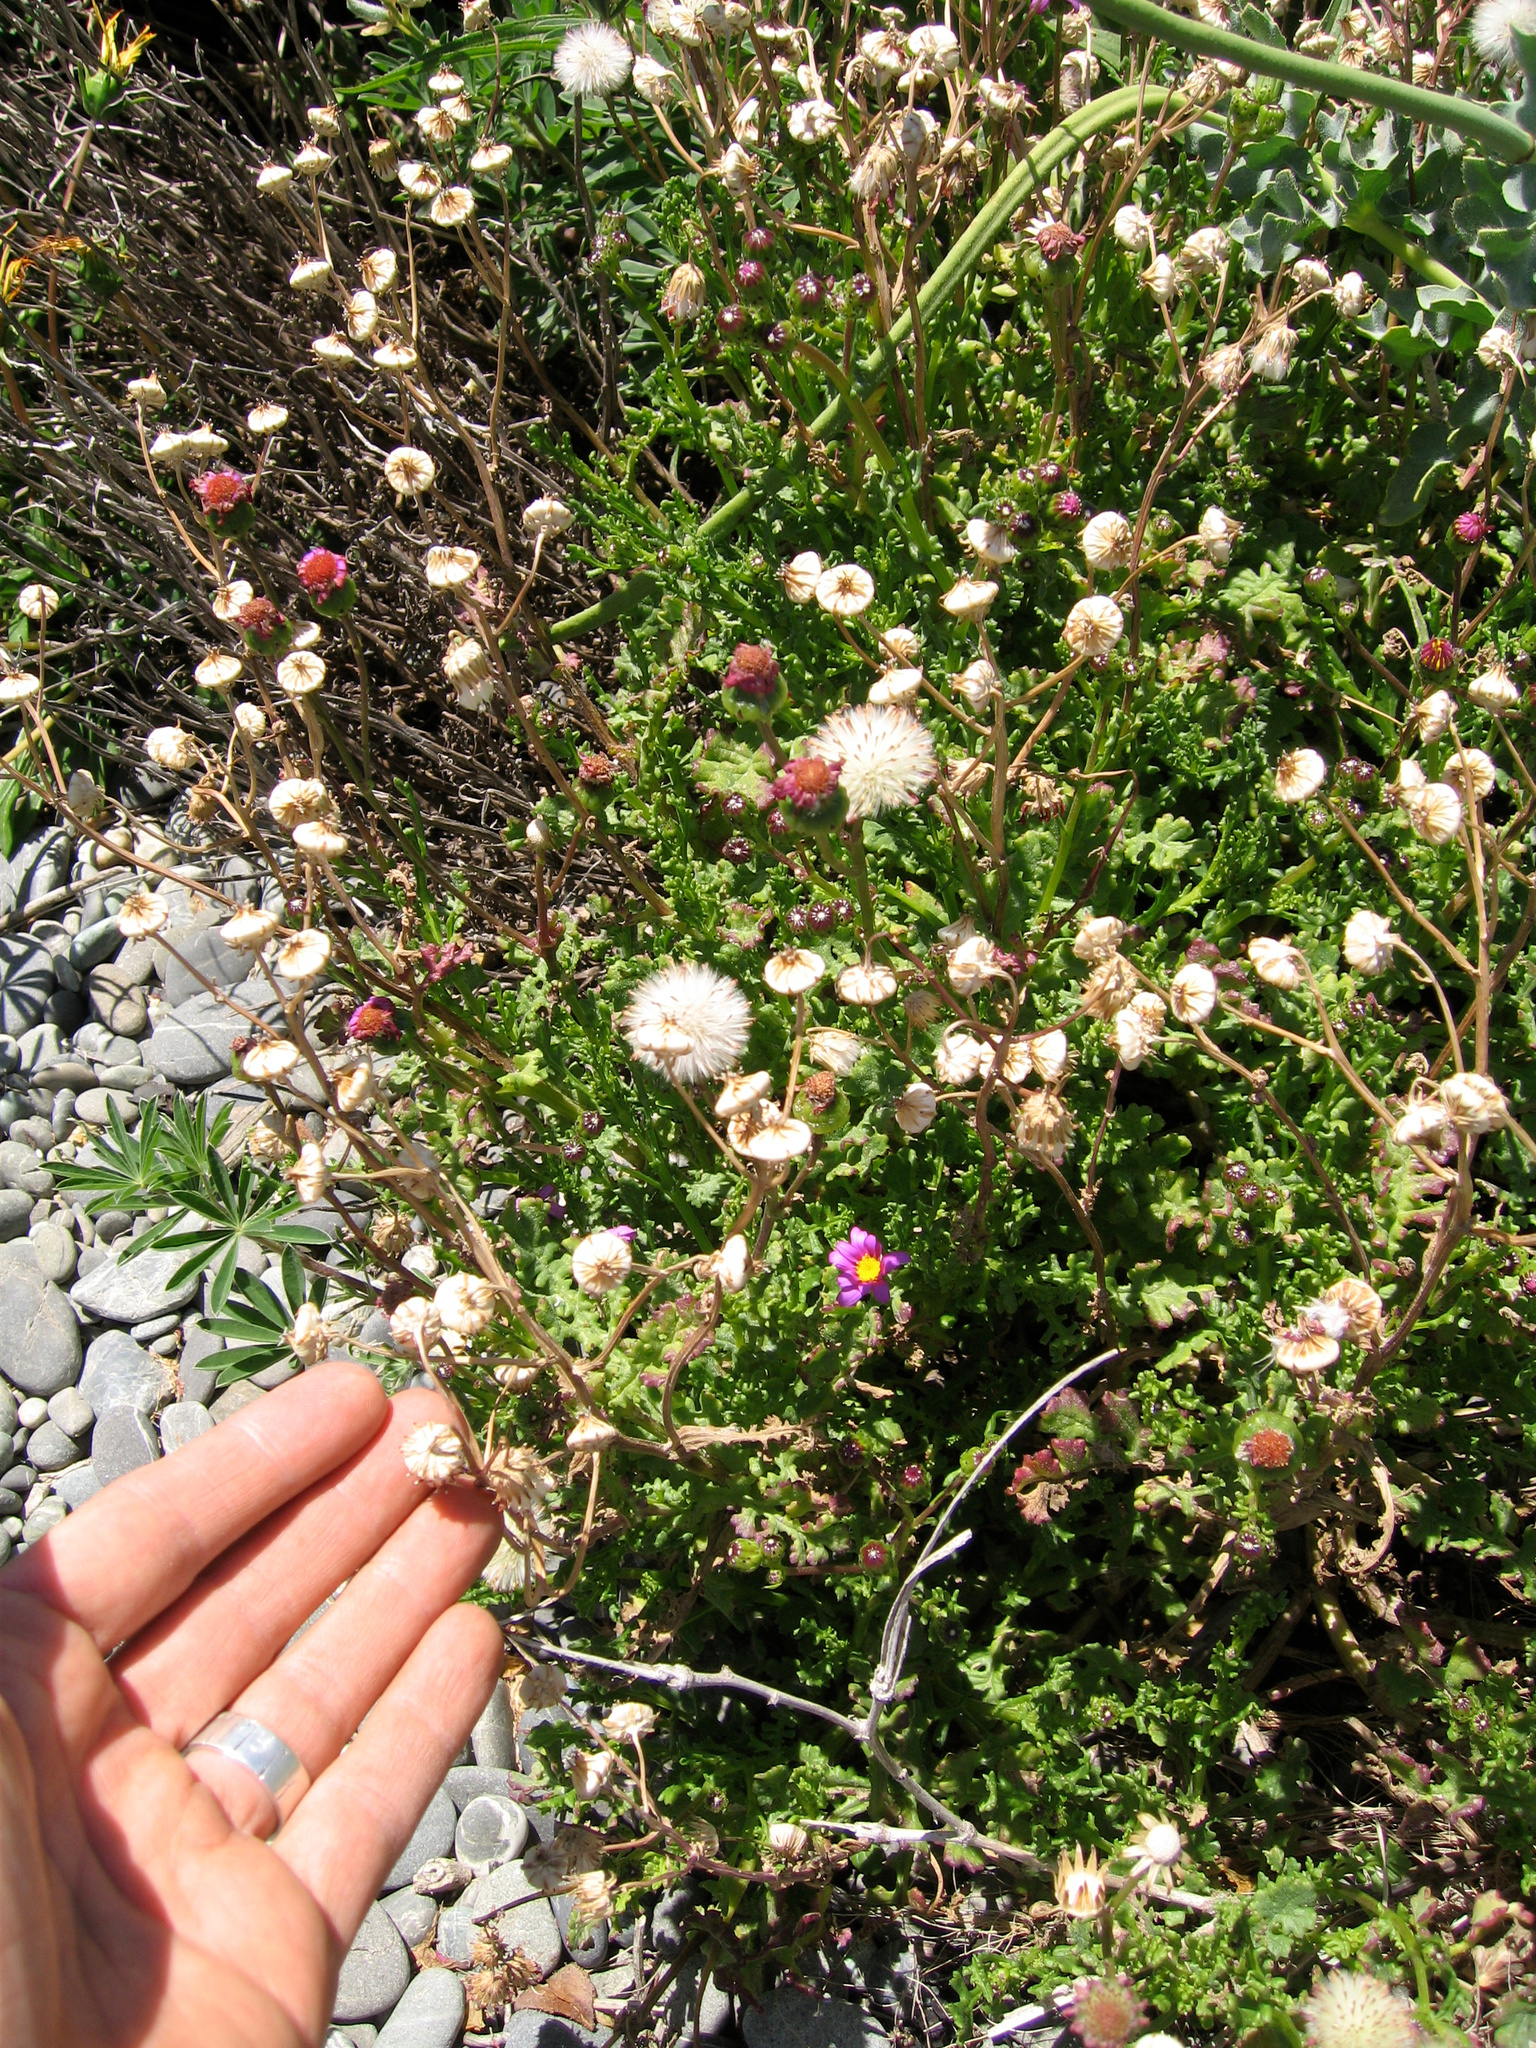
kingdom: Plantae
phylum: Tracheophyta
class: Magnoliopsida
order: Asterales
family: Asteraceae
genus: Senecio
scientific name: Senecio elegans
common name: Purple groundsel
